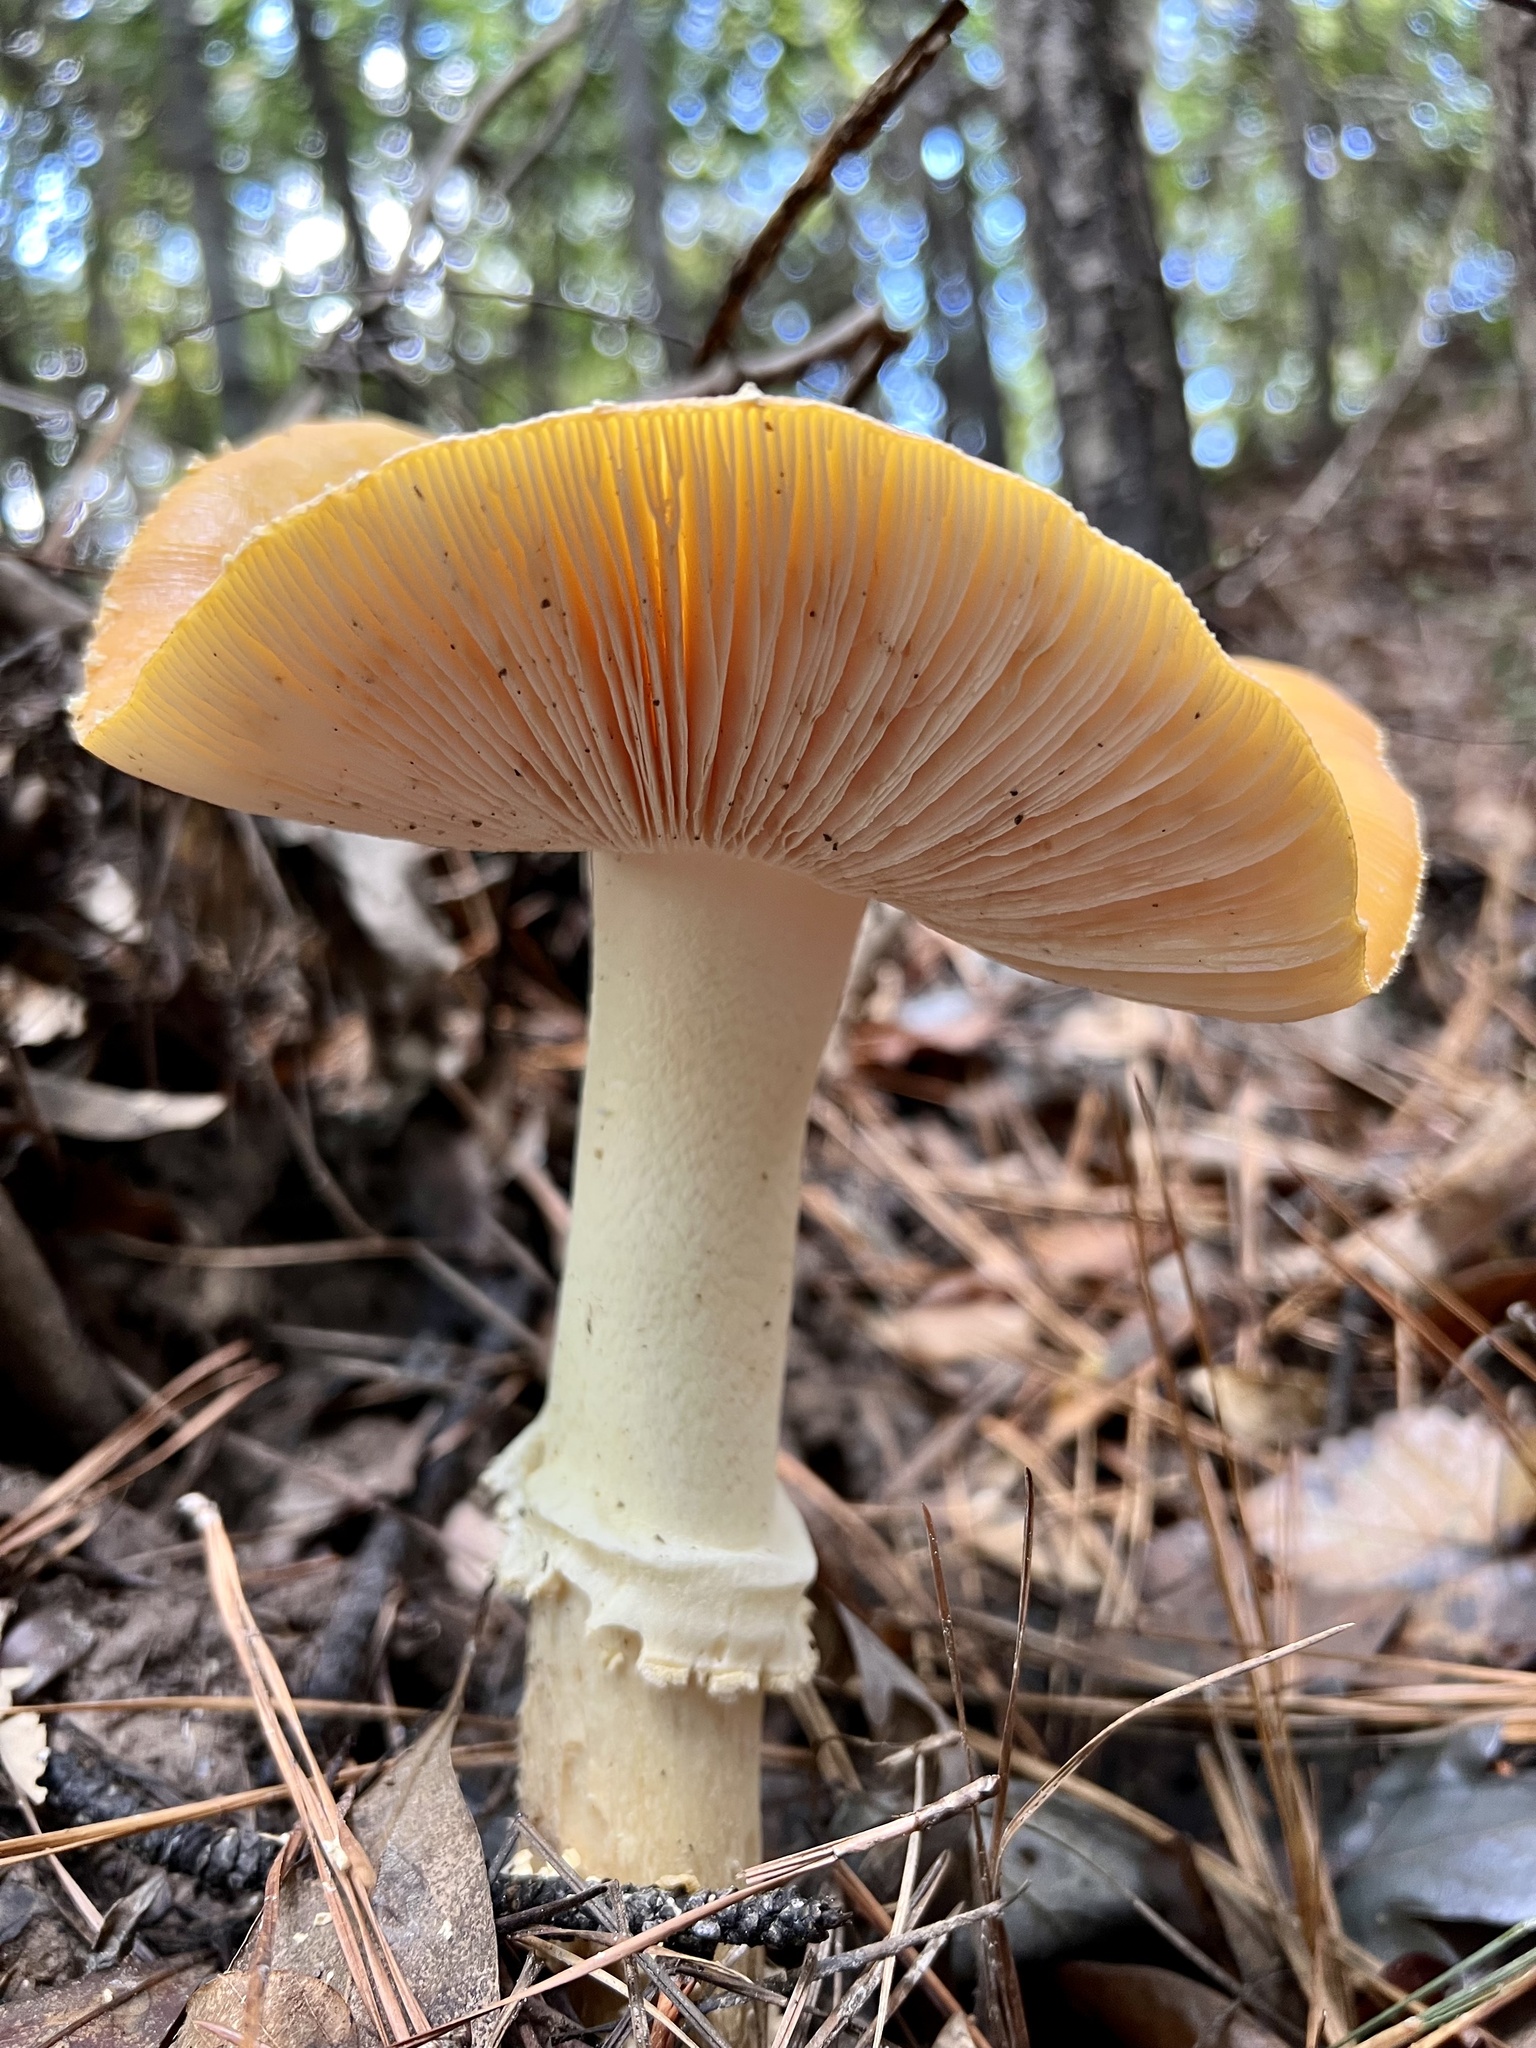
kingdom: Fungi
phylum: Basidiomycota
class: Agaricomycetes
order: Agaricales
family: Amanitaceae
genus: Amanita
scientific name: Amanita persicina
